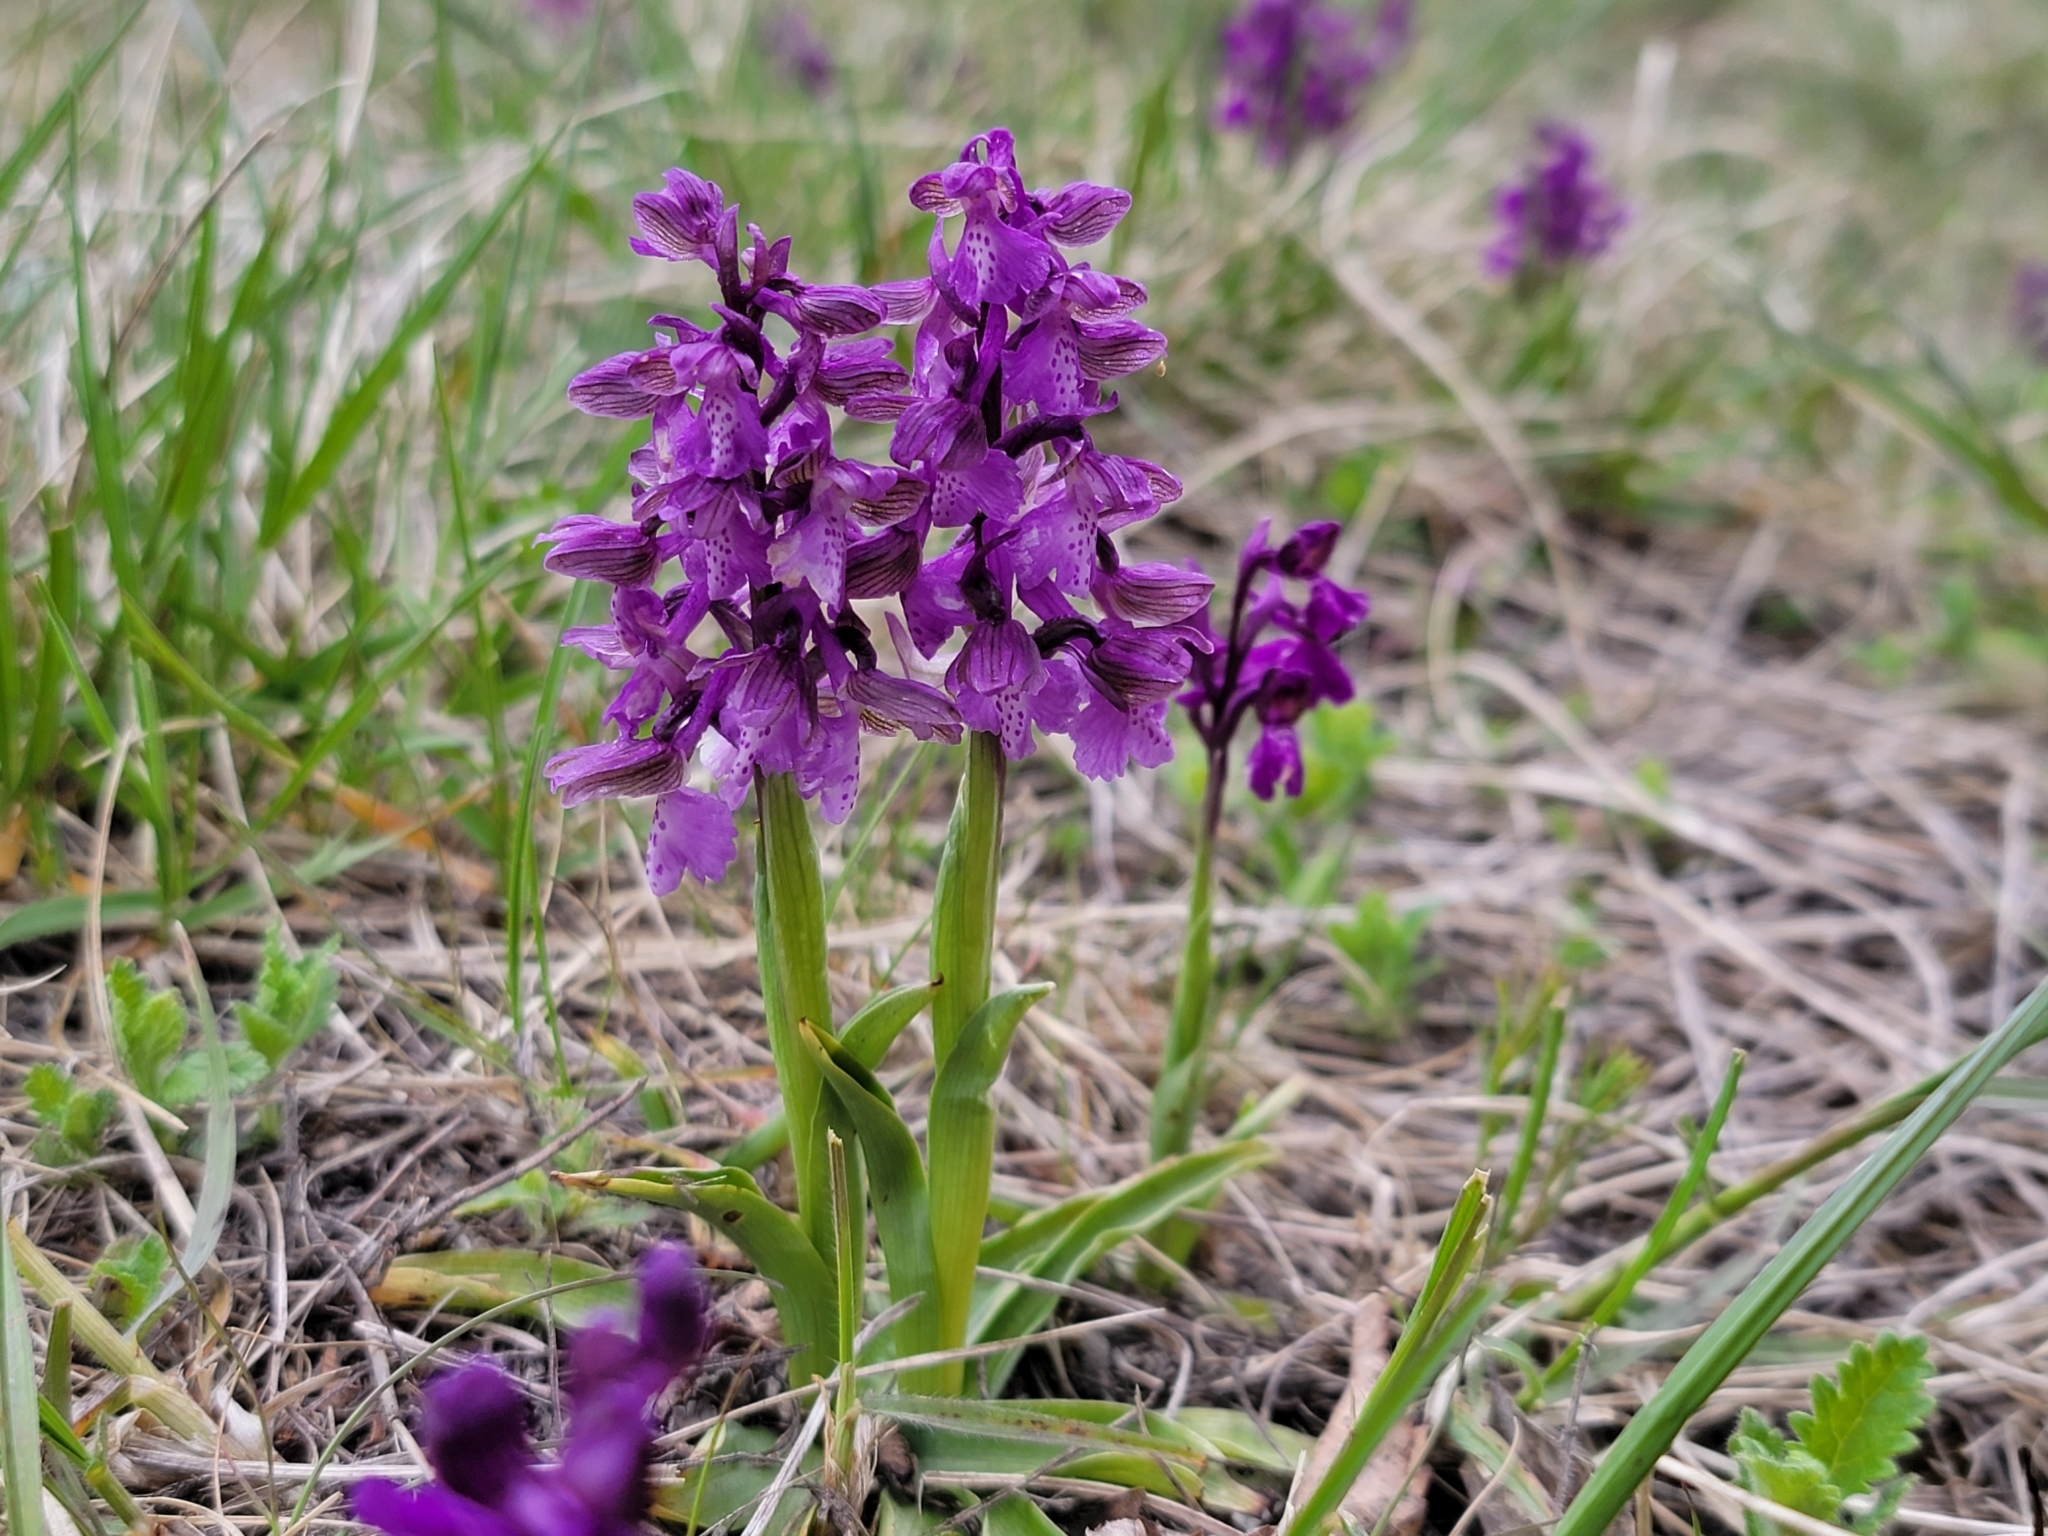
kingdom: Plantae
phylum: Tracheophyta
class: Liliopsida
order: Asparagales
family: Orchidaceae
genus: Anacamptis
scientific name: Anacamptis morio
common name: Green-winged orchid
